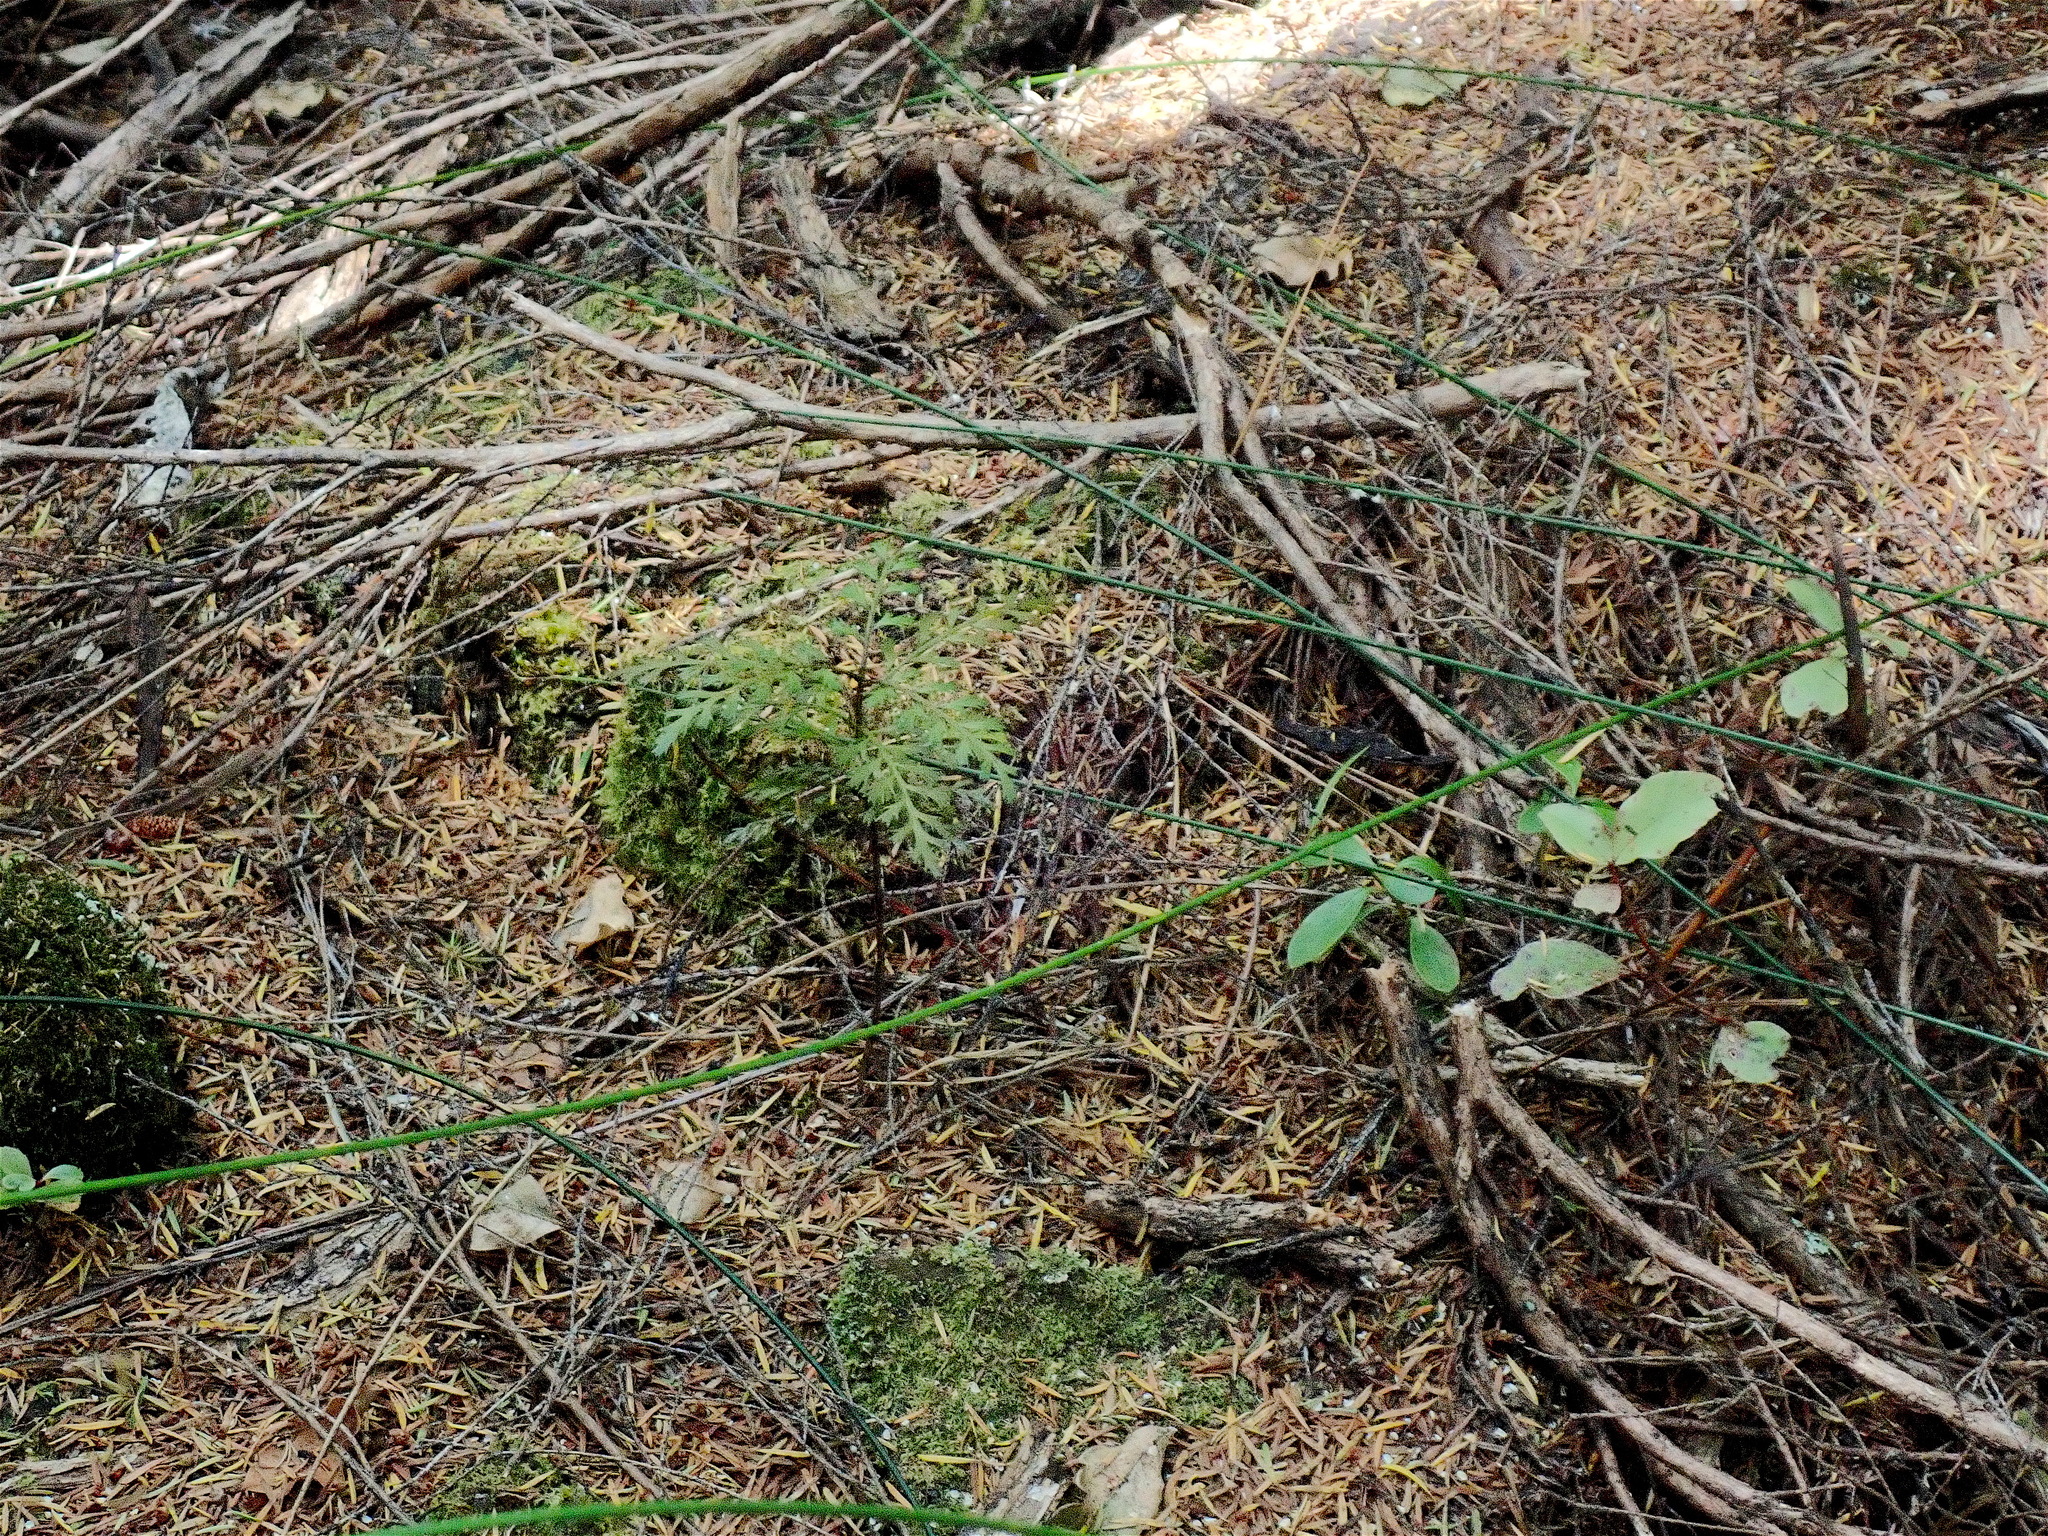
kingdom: Plantae
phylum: Tracheophyta
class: Pinopsida
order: Pinales
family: Phyllocladaceae
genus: Phyllocladus
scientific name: Phyllocladus trichomanoides
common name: Celery pine
